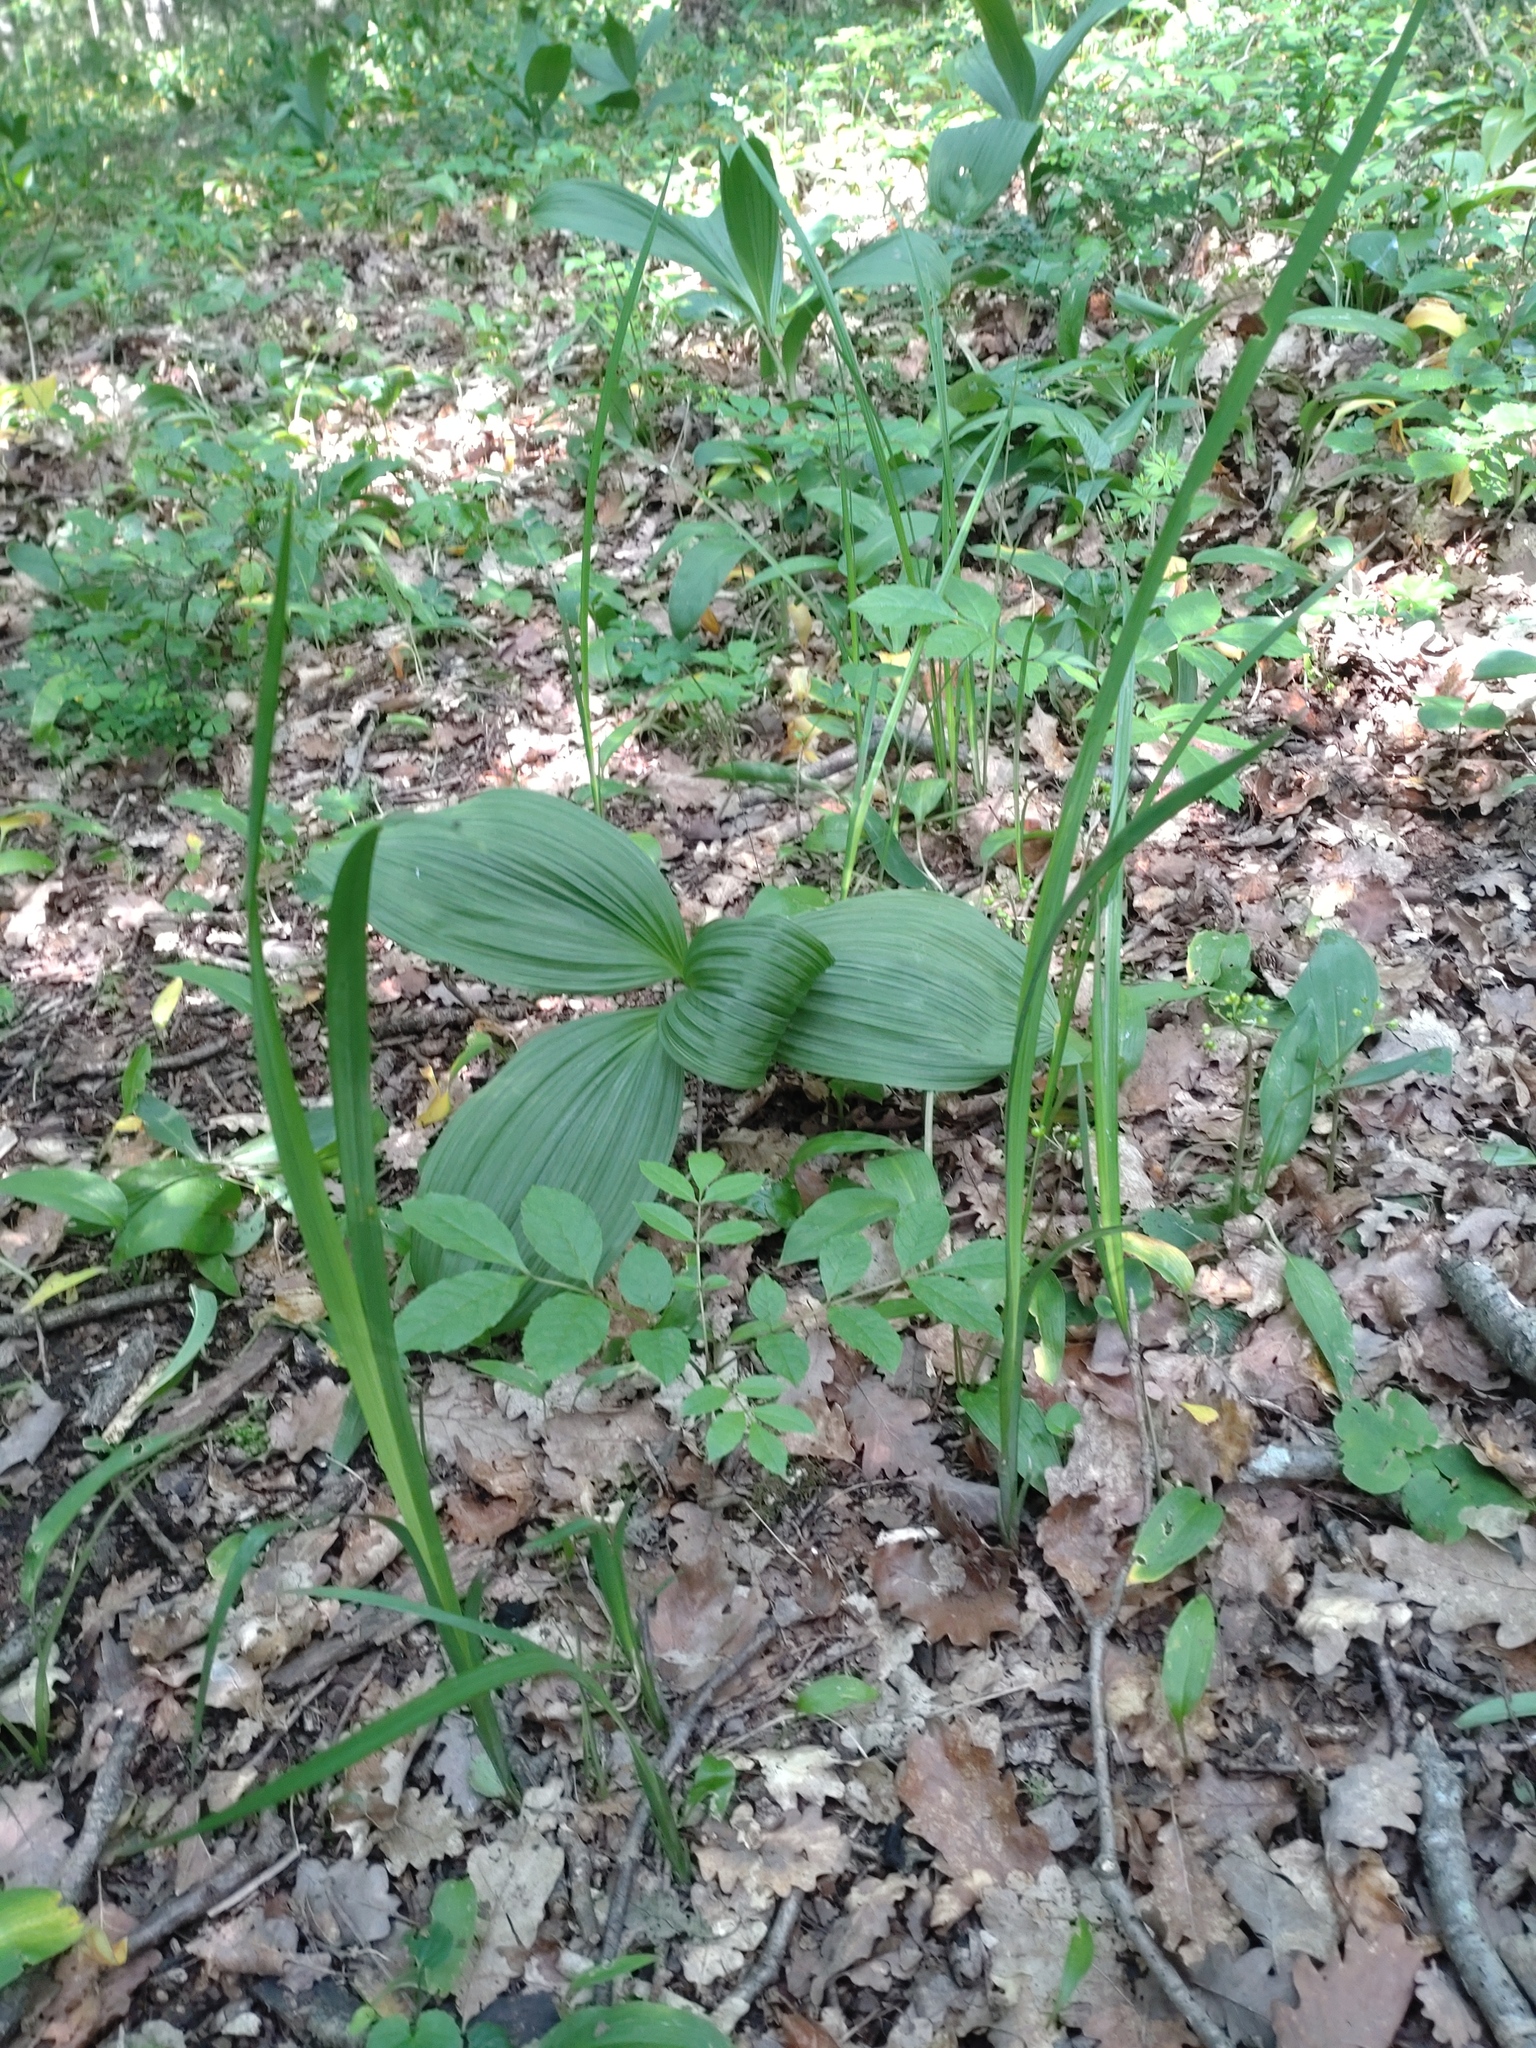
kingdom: Plantae
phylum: Tracheophyta
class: Liliopsida
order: Asparagales
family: Iridaceae
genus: Iris
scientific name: Iris graminea
